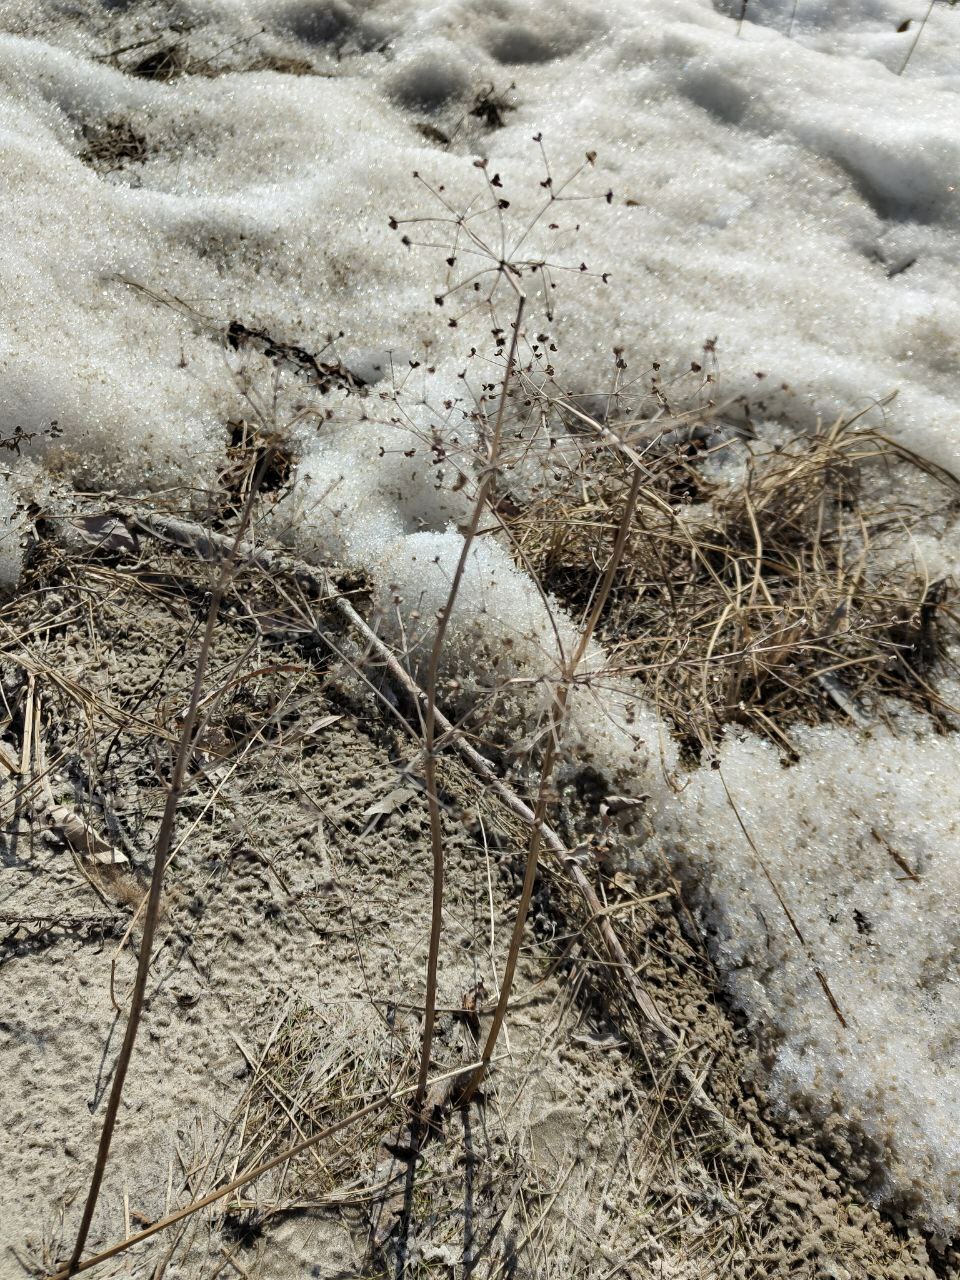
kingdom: Plantae
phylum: Tracheophyta
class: Liliopsida
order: Alismatales
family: Alismataceae
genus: Alisma
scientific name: Alisma plantago-aquatica
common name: Water-plantain
